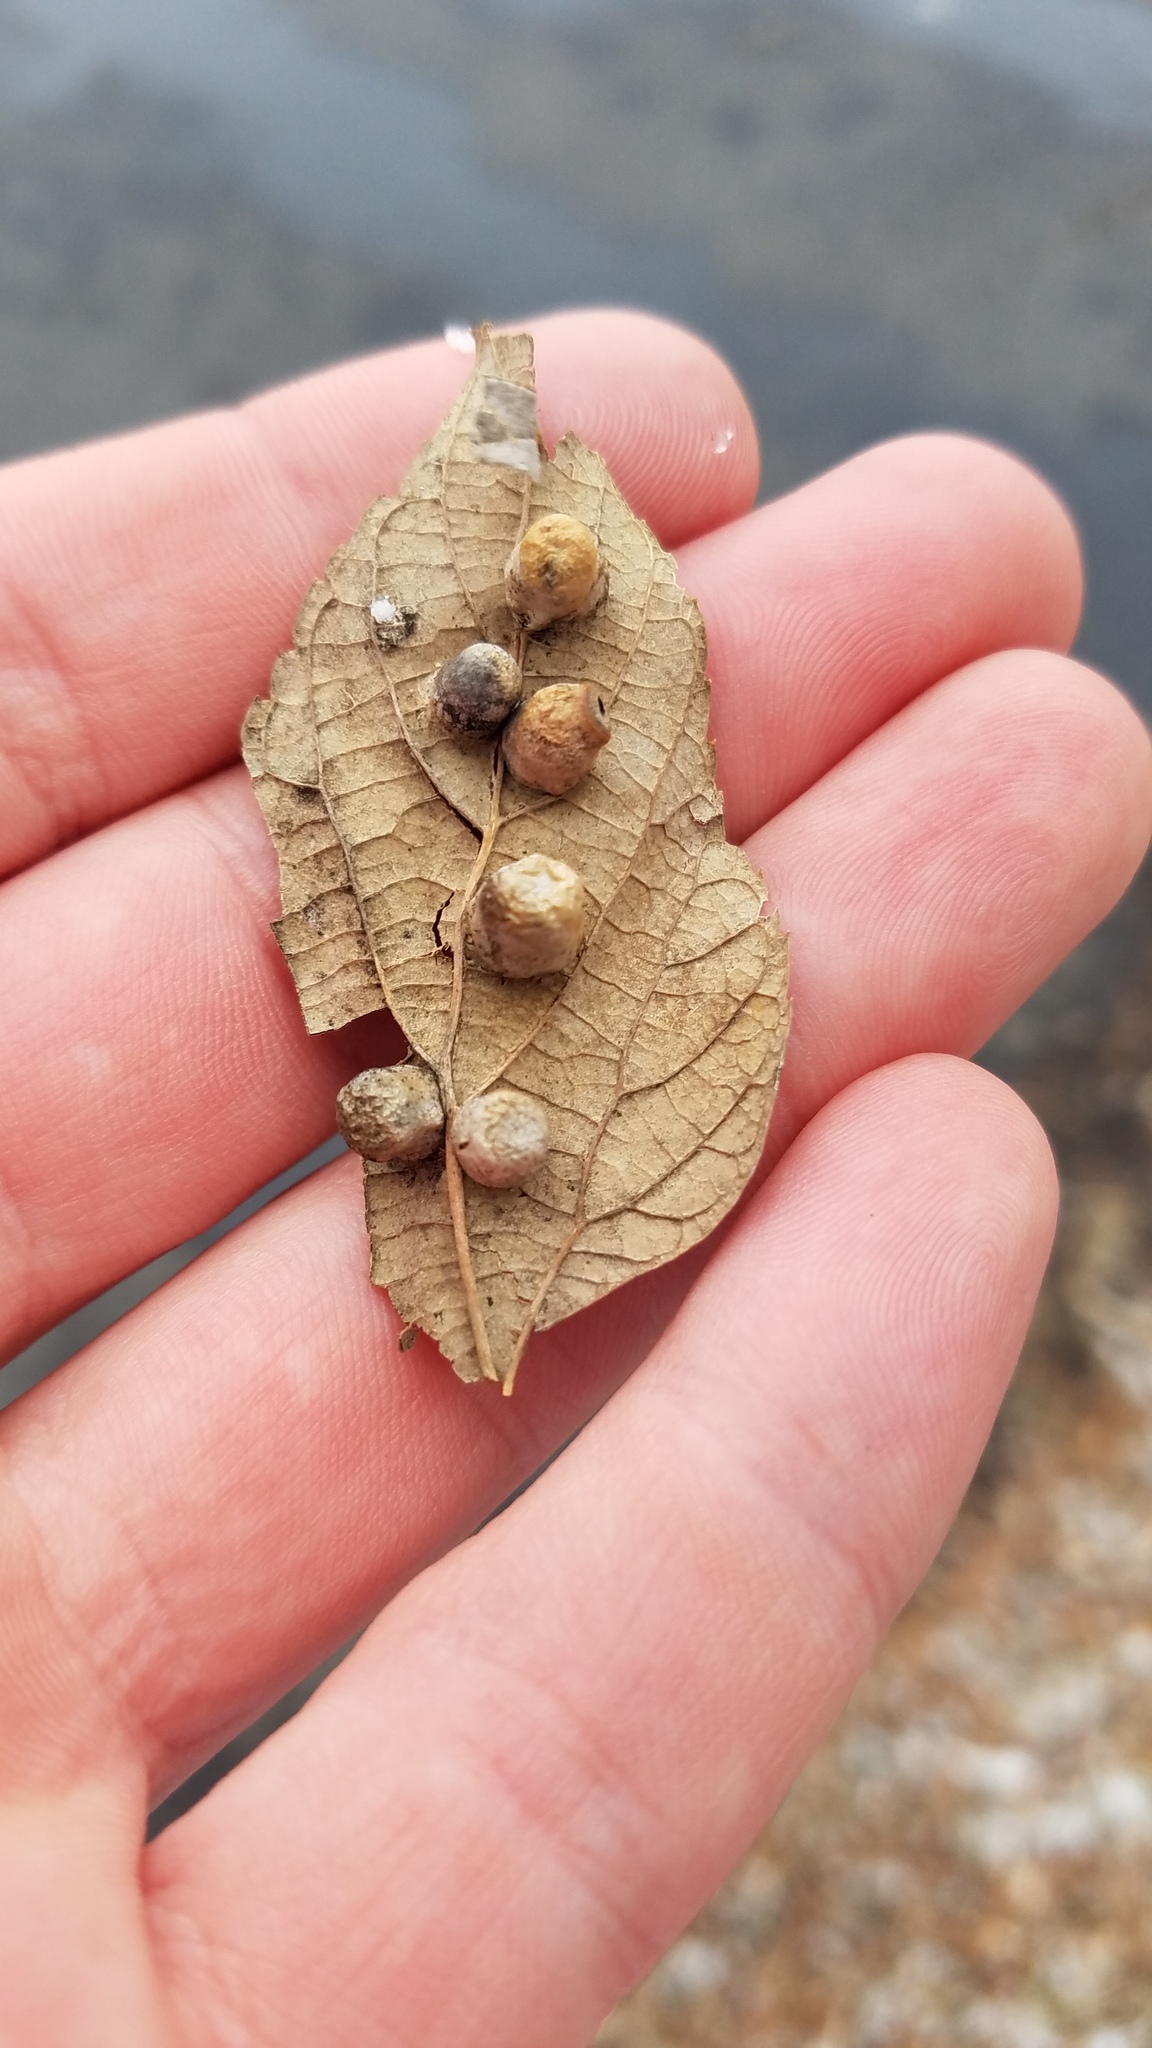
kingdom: Animalia
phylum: Arthropoda
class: Insecta
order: Hemiptera
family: Aphalaridae
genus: Pachypsylla
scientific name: Pachypsylla celtidismamma
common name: Hackberry nipplegall psyllid
